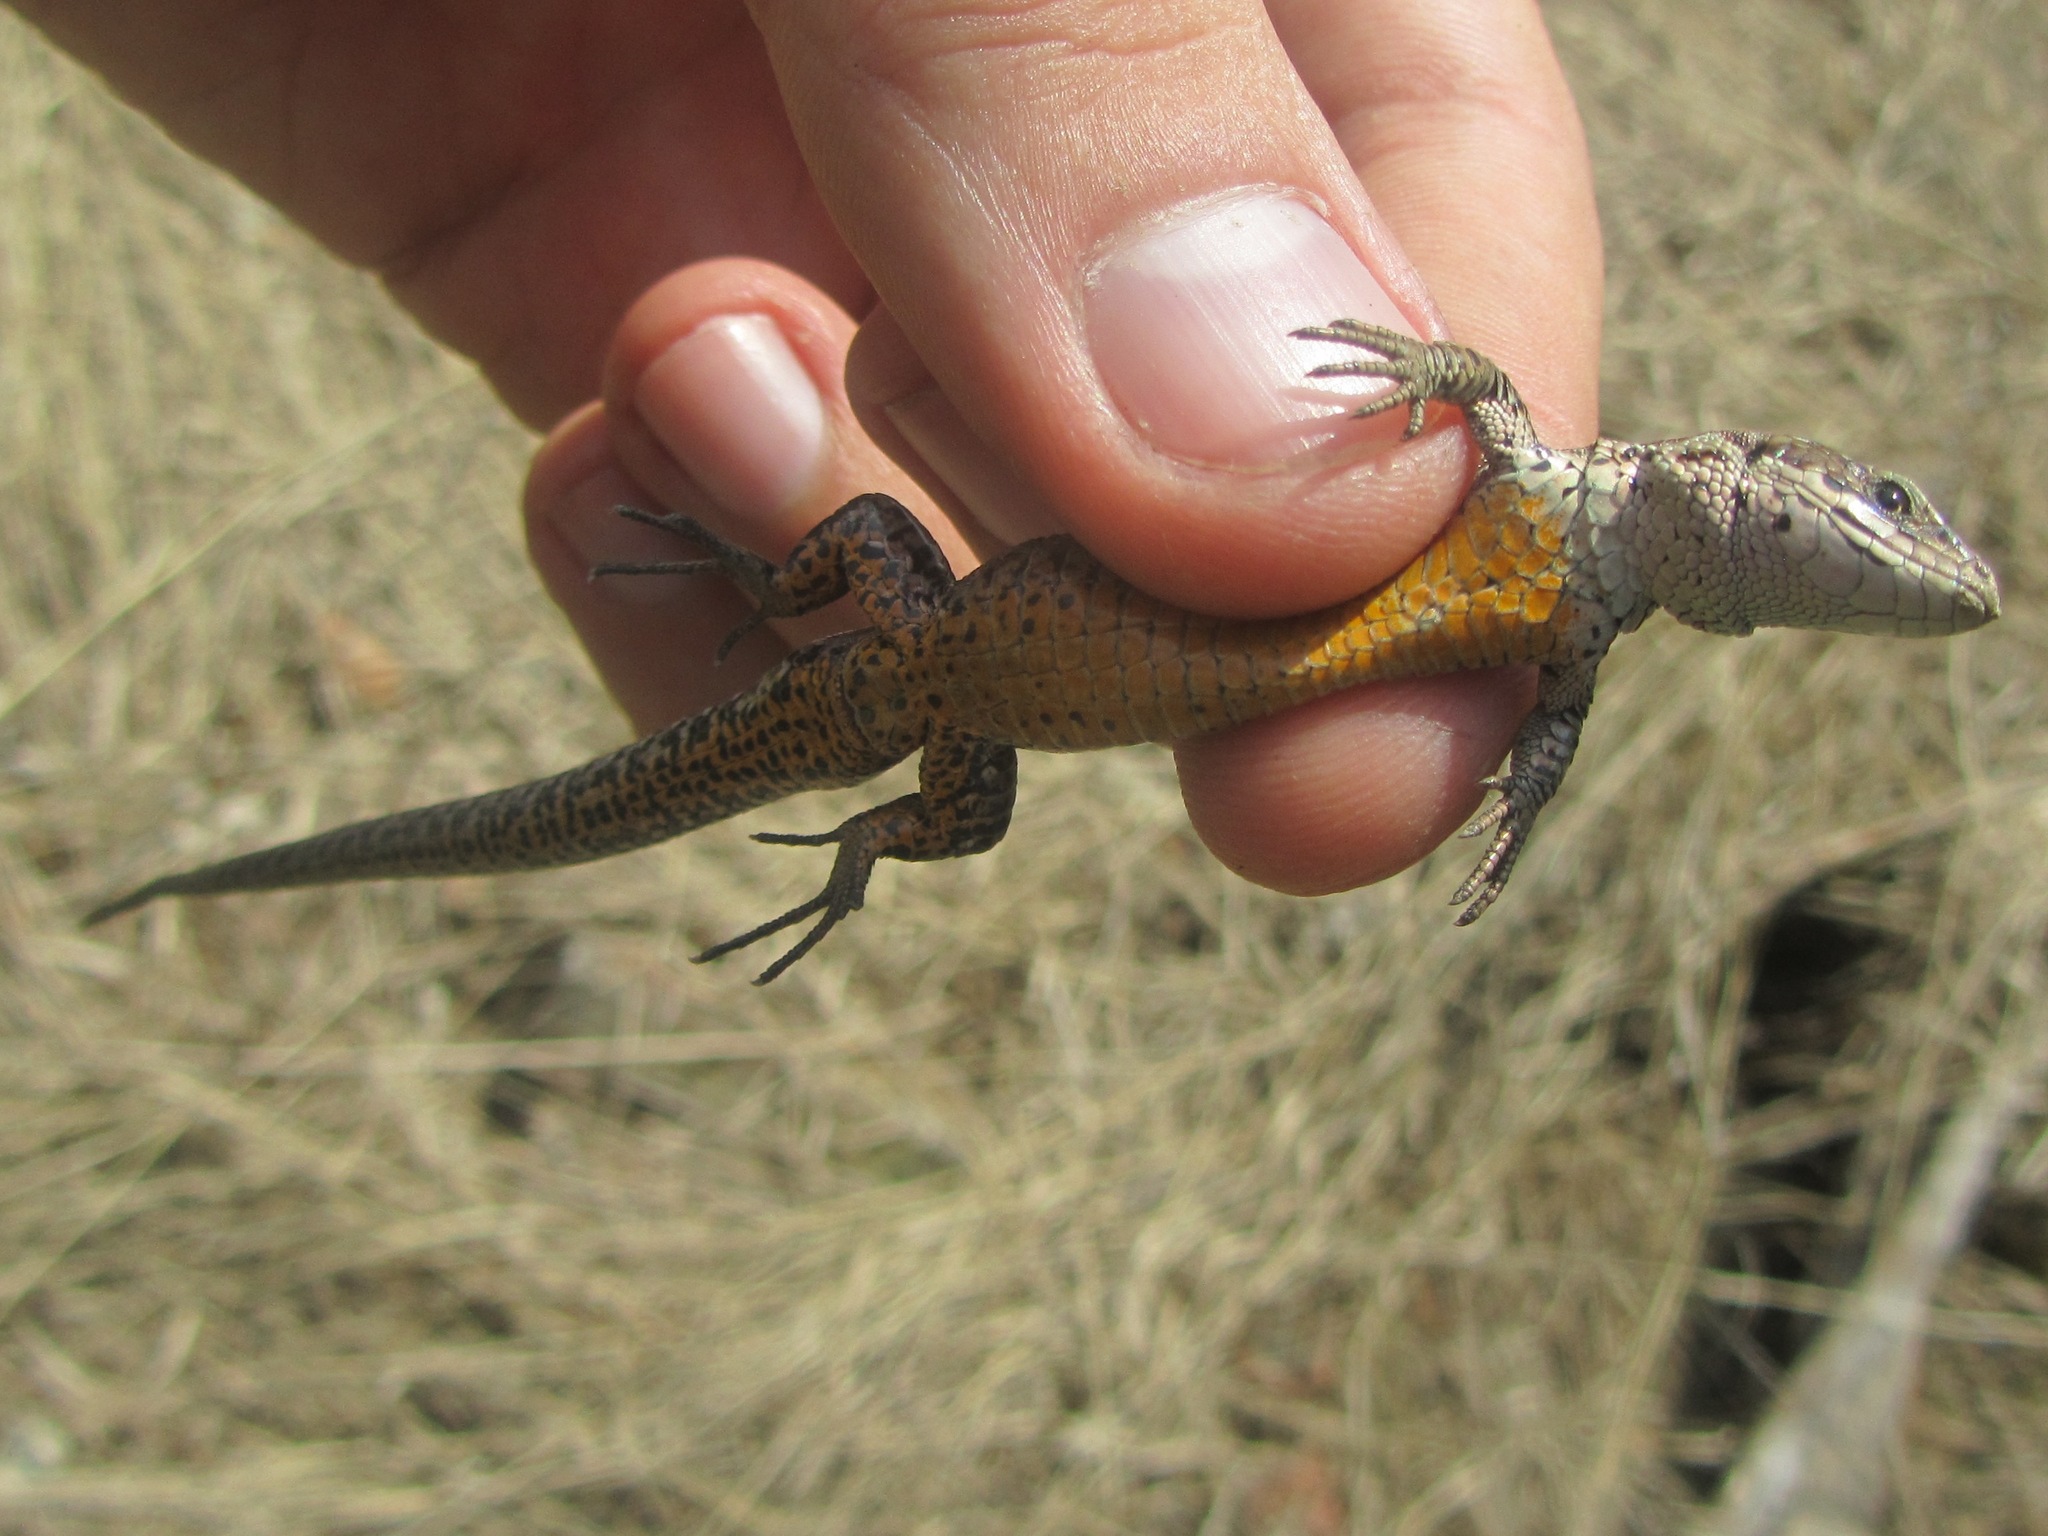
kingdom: Animalia
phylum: Chordata
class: Squamata
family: Lacertidae
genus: Zootoca
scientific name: Zootoca vivipara
